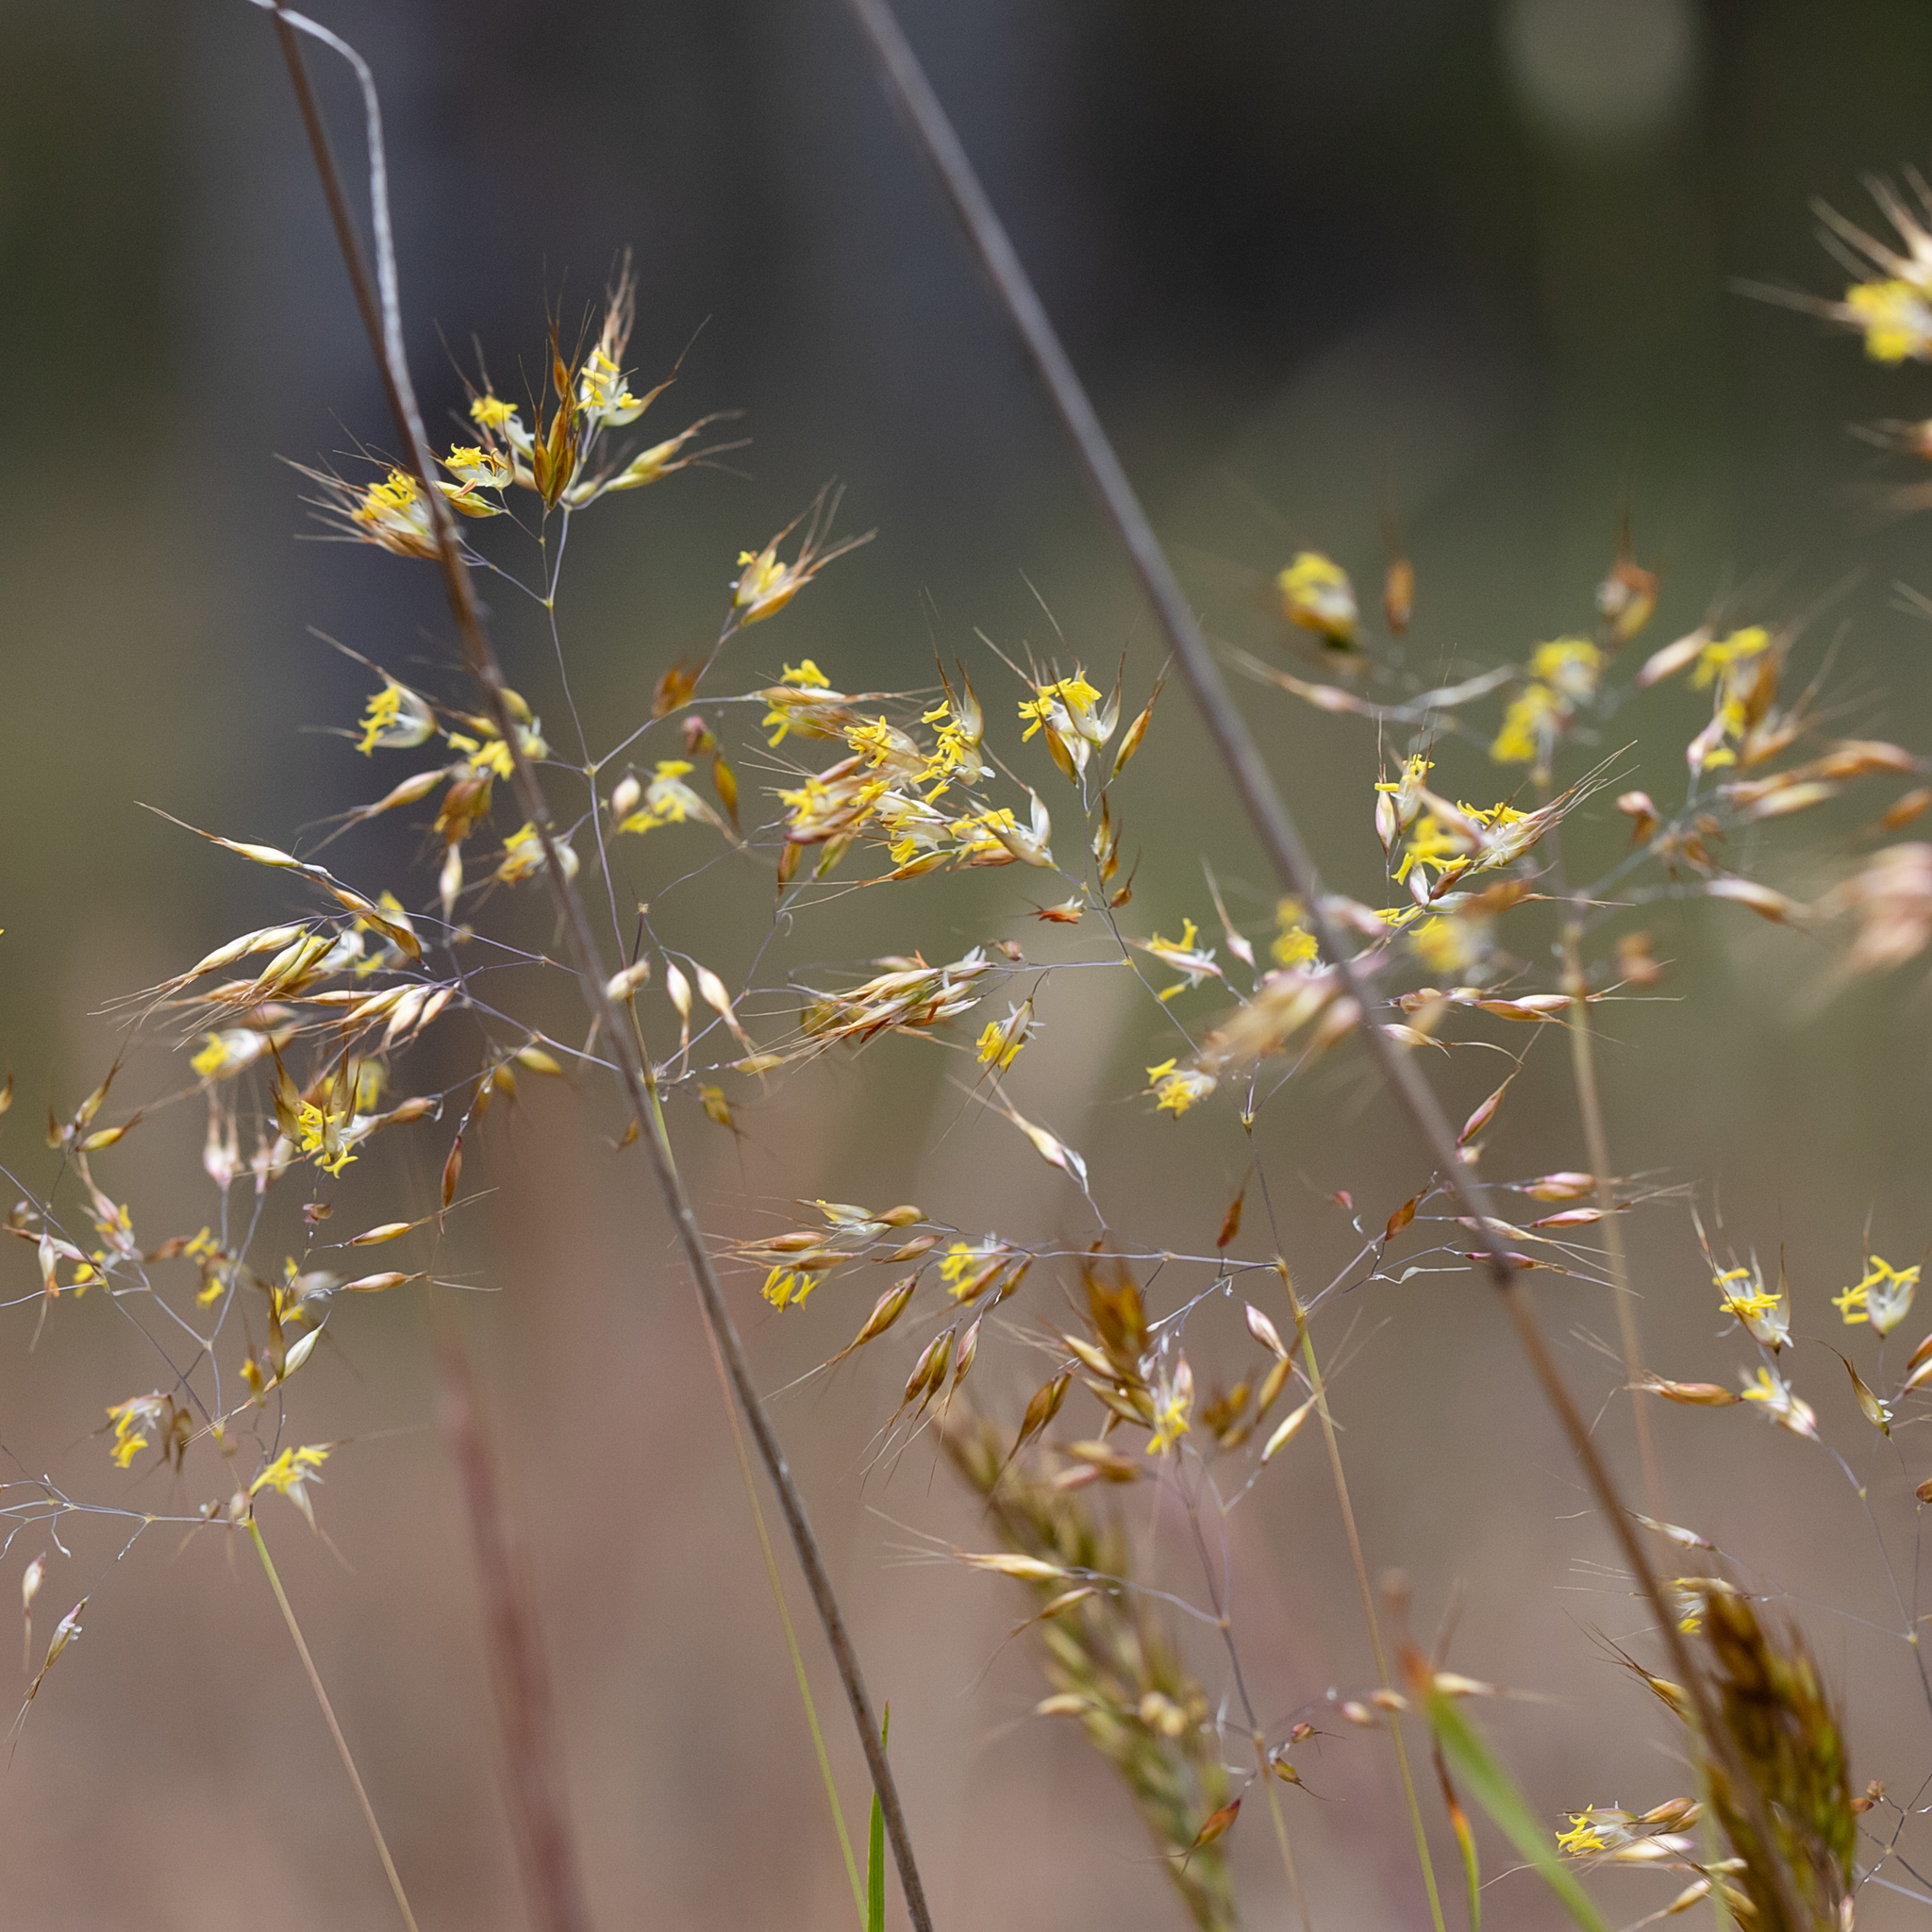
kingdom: Plantae
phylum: Tracheophyta
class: Liliopsida
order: Poales
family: Poaceae
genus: Pentameris
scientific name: Pentameris pallida
